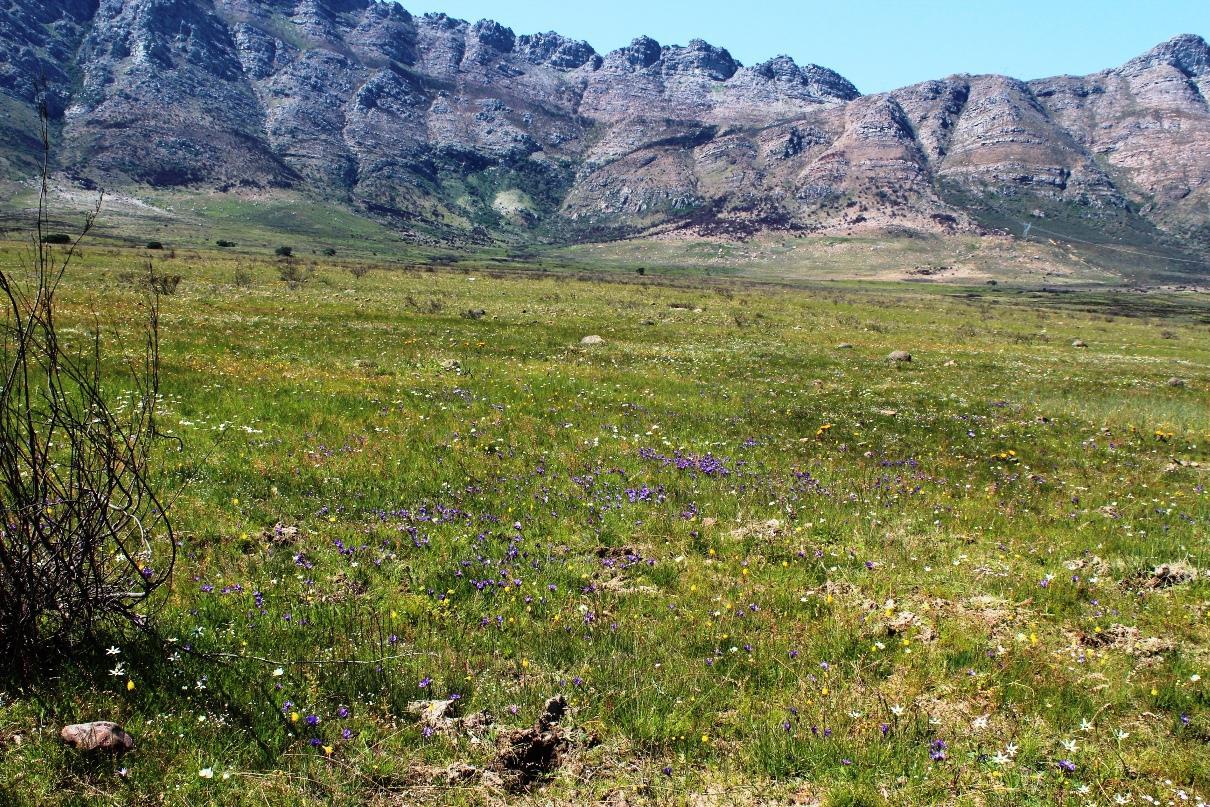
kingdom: Plantae
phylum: Tracheophyta
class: Liliopsida
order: Asparagales
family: Iridaceae
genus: Babiana
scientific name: Babiana angustifolia
